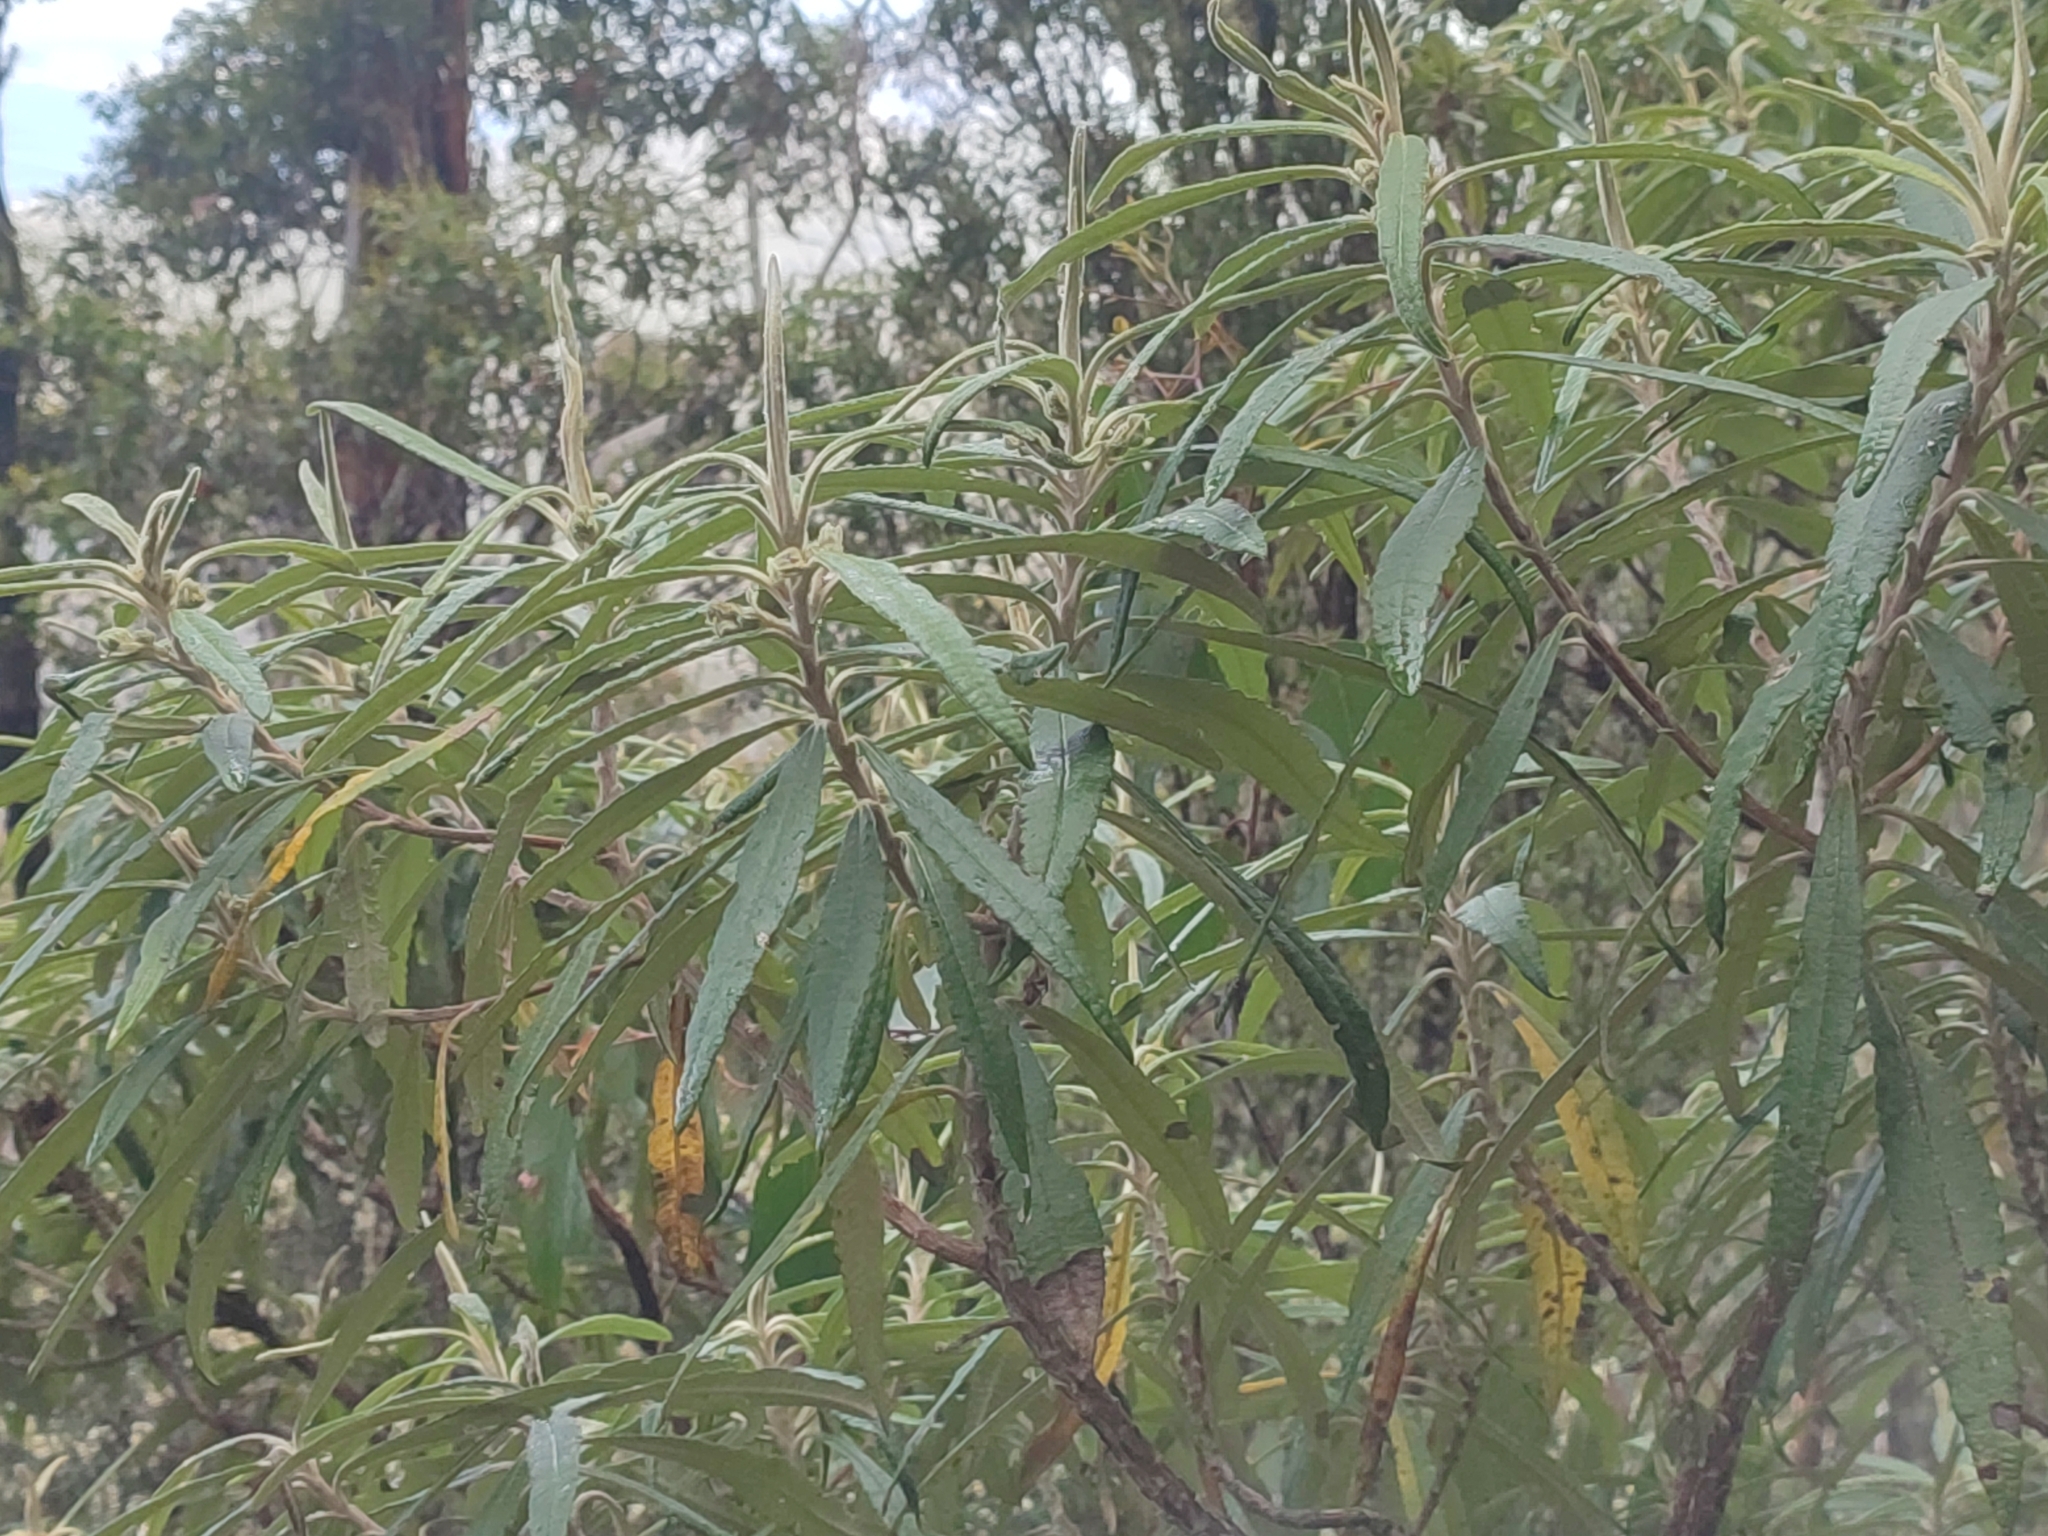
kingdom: Plantae
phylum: Tracheophyta
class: Magnoliopsida
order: Asterales
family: Asteraceae
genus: Bedfordia
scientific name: Bedfordia salicina
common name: Blanketleaf
